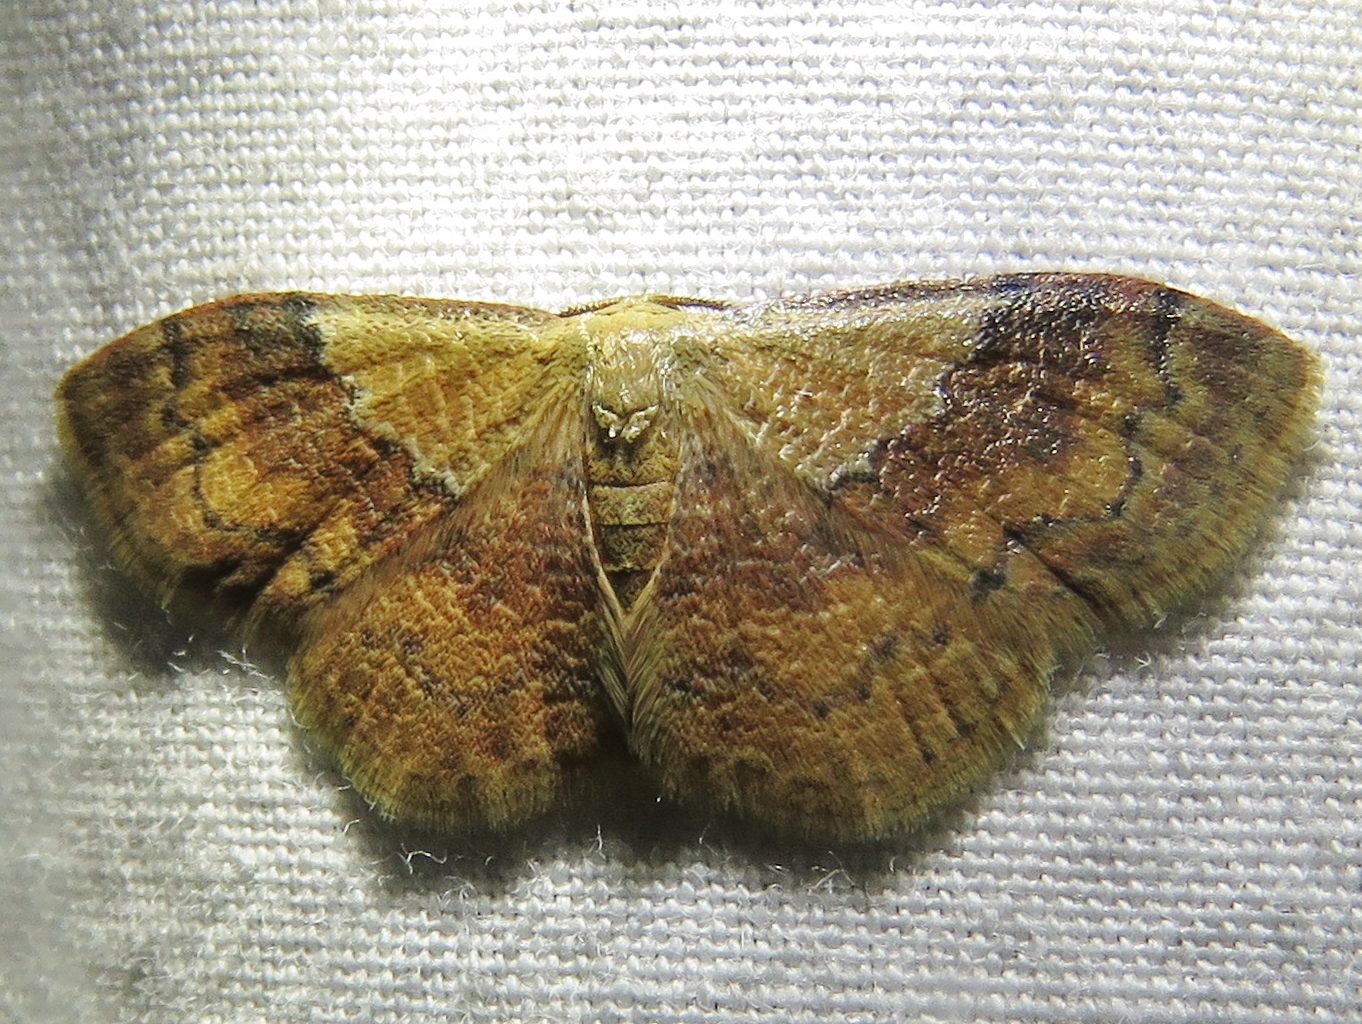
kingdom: Animalia
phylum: Arthropoda
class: Insecta
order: Lepidoptera
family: Geometridae
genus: Leptostales
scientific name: Leptostales ferruminaria
